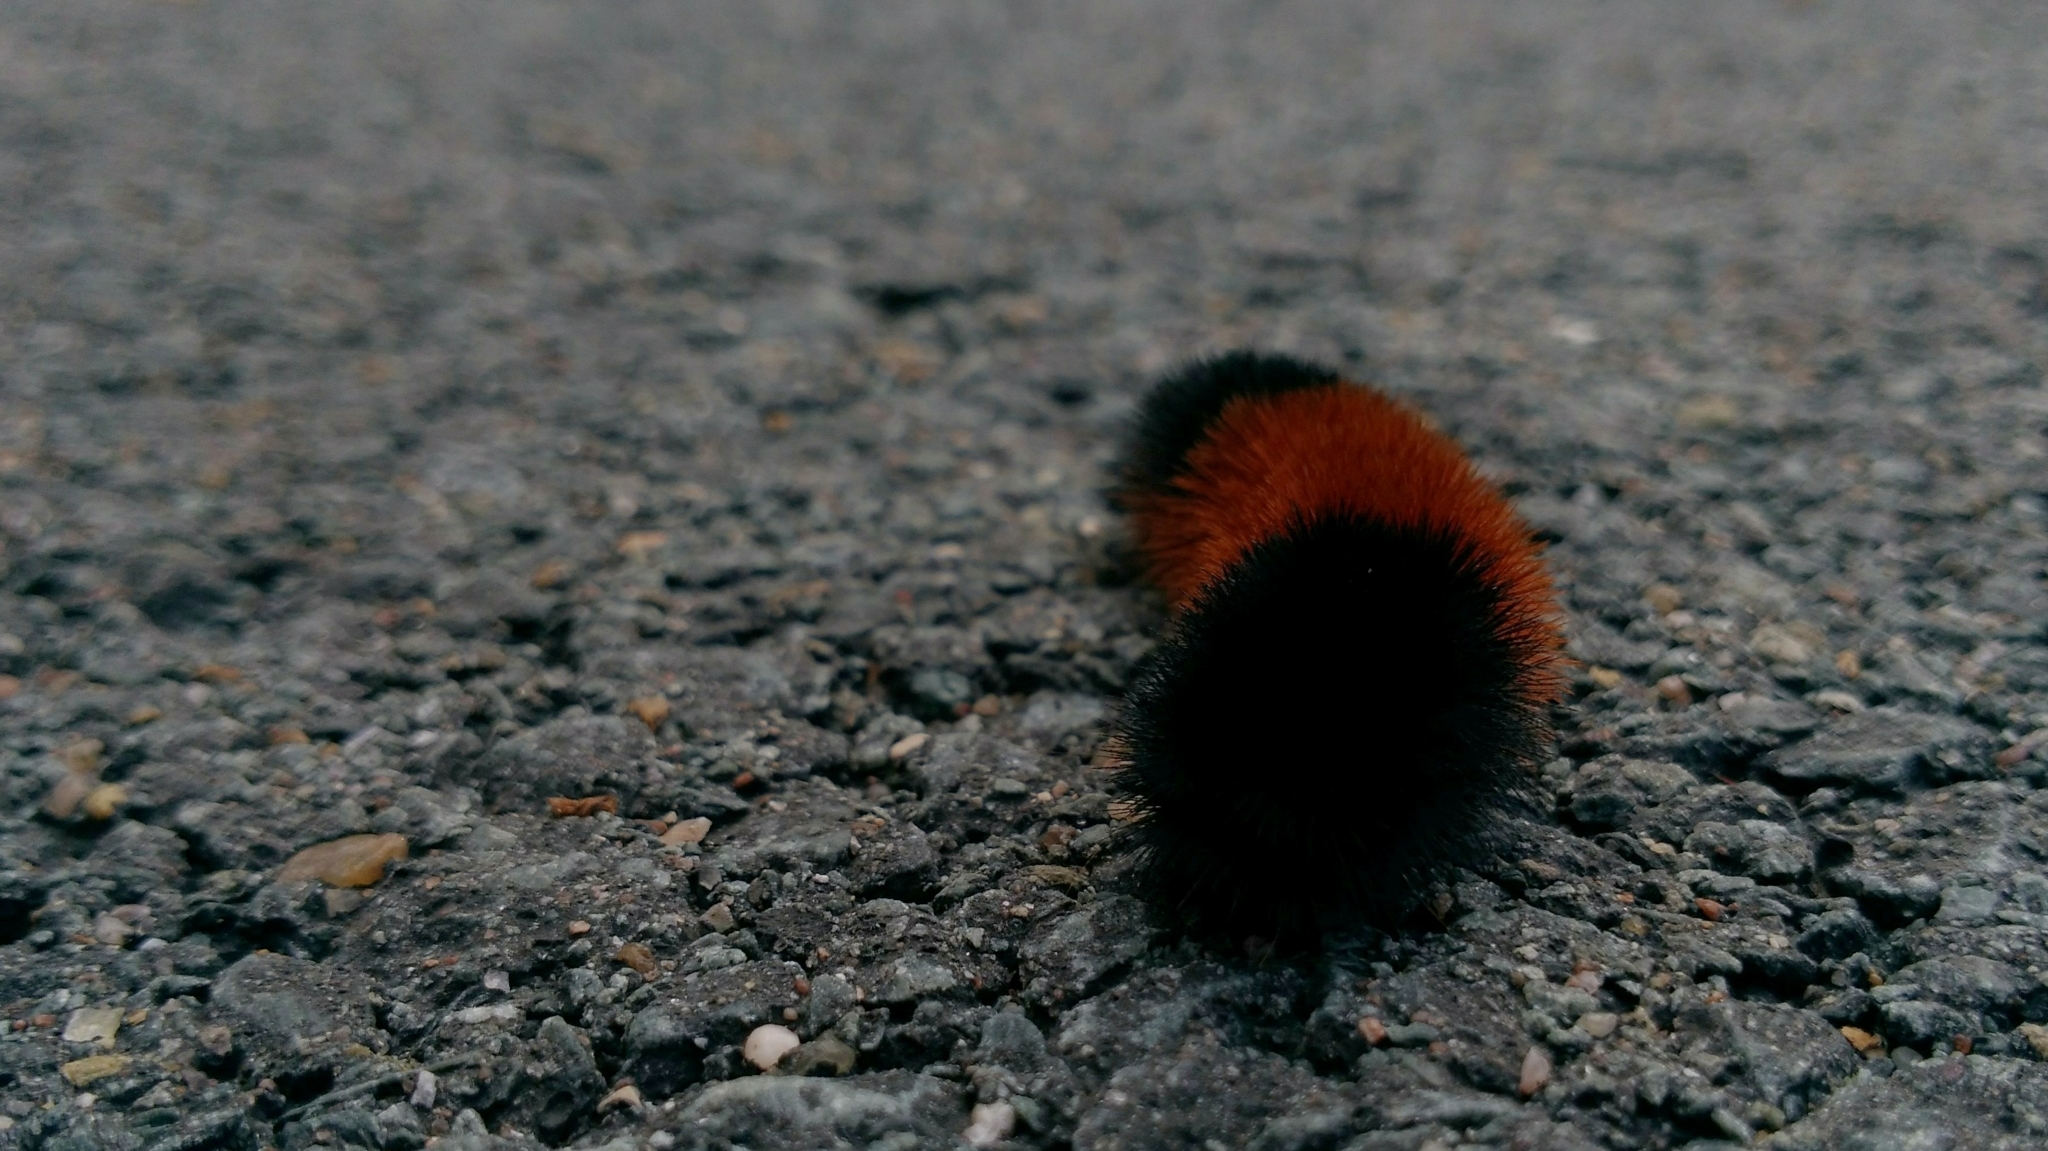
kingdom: Animalia
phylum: Arthropoda
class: Insecta
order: Lepidoptera
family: Erebidae
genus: Pyrrharctia
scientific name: Pyrrharctia isabella
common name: Isabella tiger moth
